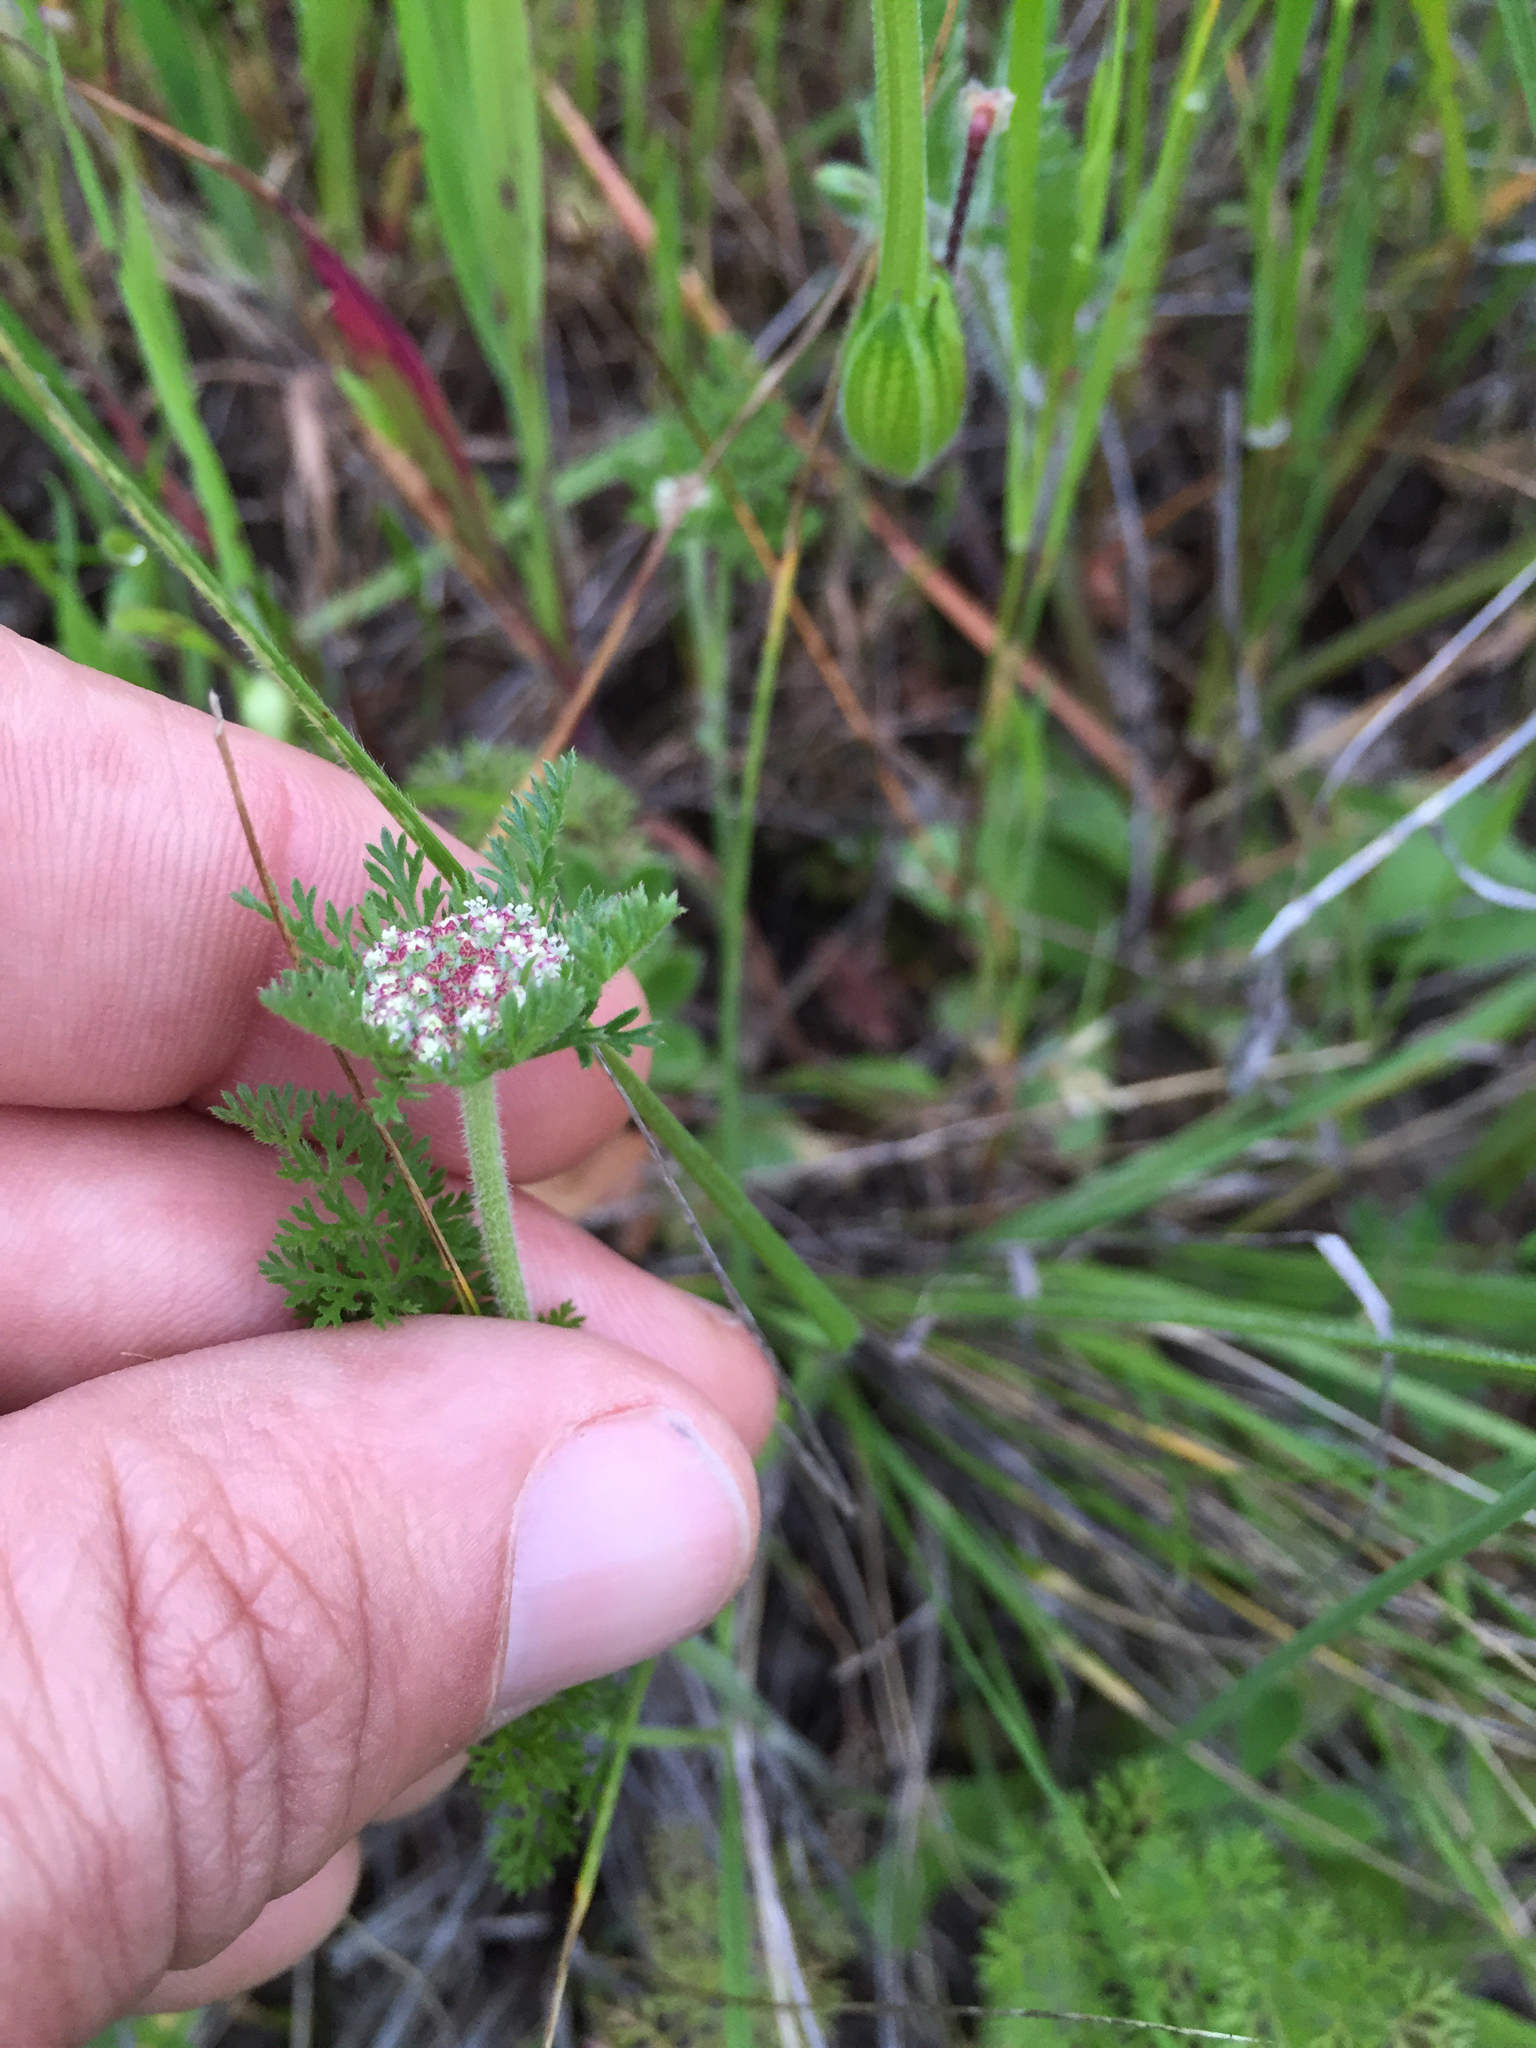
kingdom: Plantae
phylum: Tracheophyta
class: Magnoliopsida
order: Apiales
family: Apiaceae
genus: Daucus
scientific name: Daucus pusillus
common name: Southwest wild carrot
